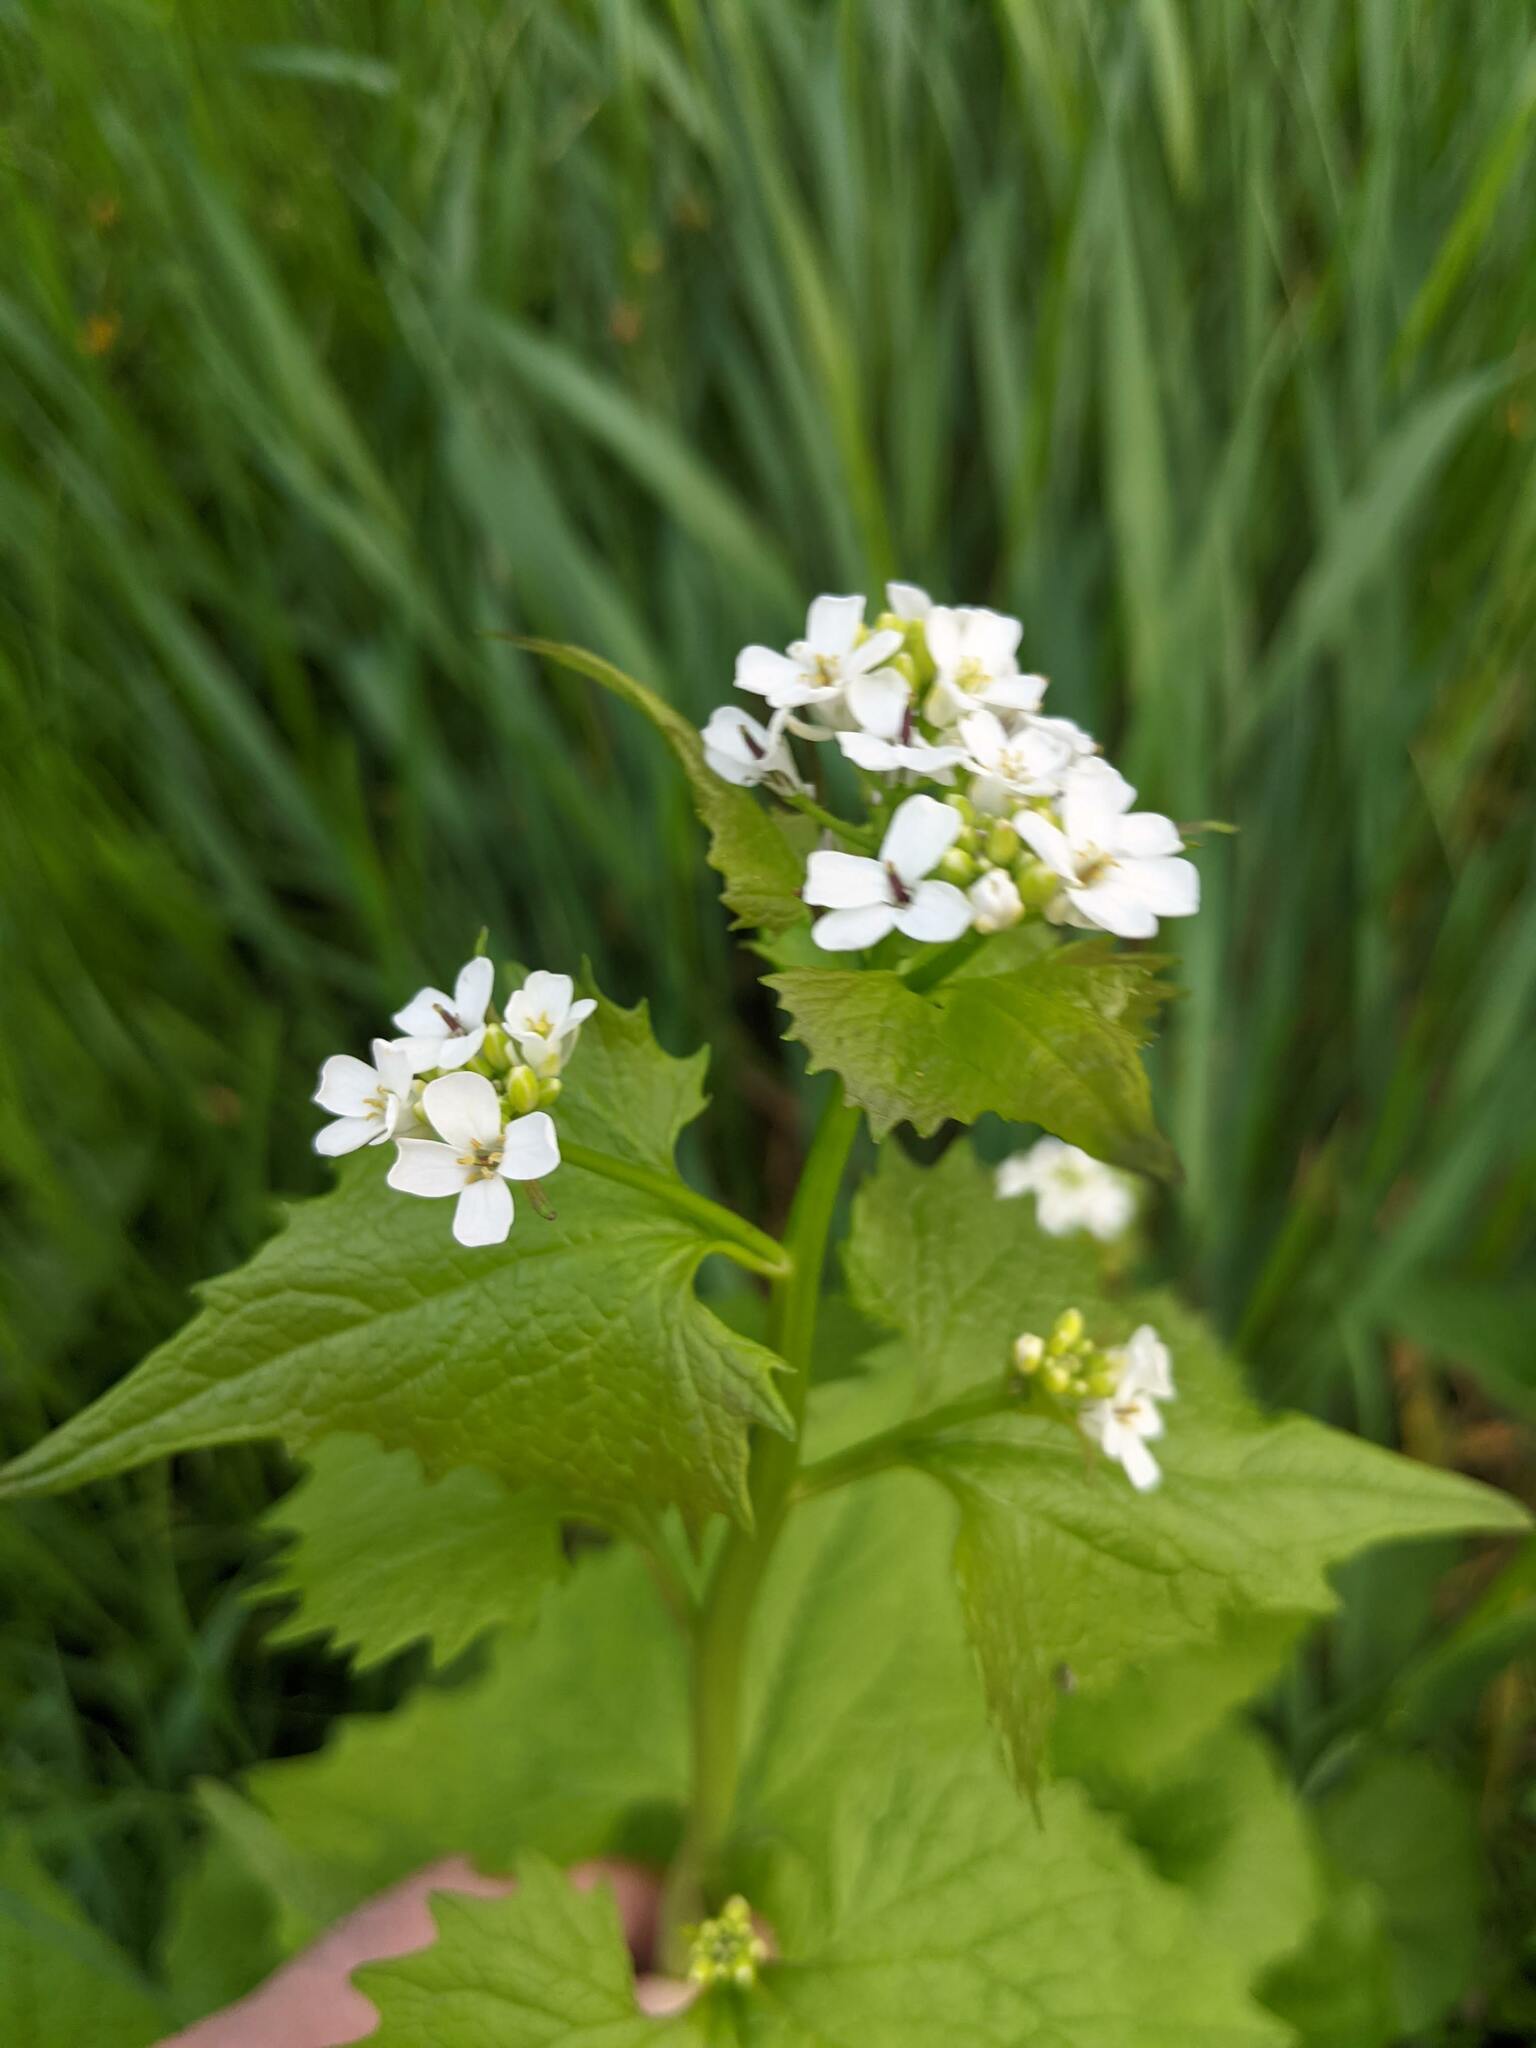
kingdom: Plantae
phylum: Tracheophyta
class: Magnoliopsida
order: Brassicales
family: Brassicaceae
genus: Alliaria
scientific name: Alliaria petiolata
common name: Garlic mustard
